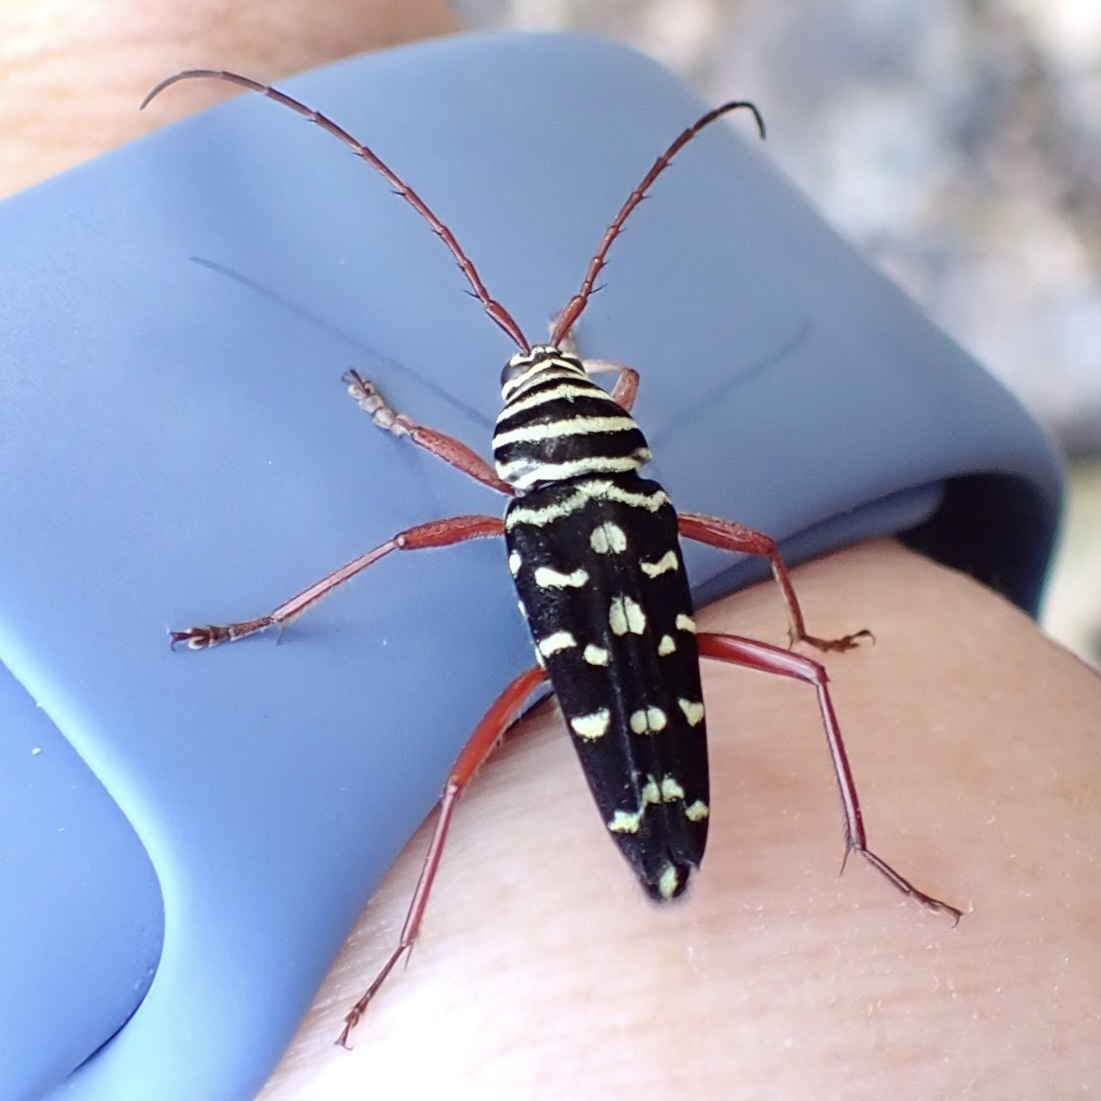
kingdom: Animalia
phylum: Arthropoda
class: Insecta
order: Coleoptera
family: Cerambycidae
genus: Placosternus
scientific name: Placosternus crinicornis
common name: Kiawe round headed borer
